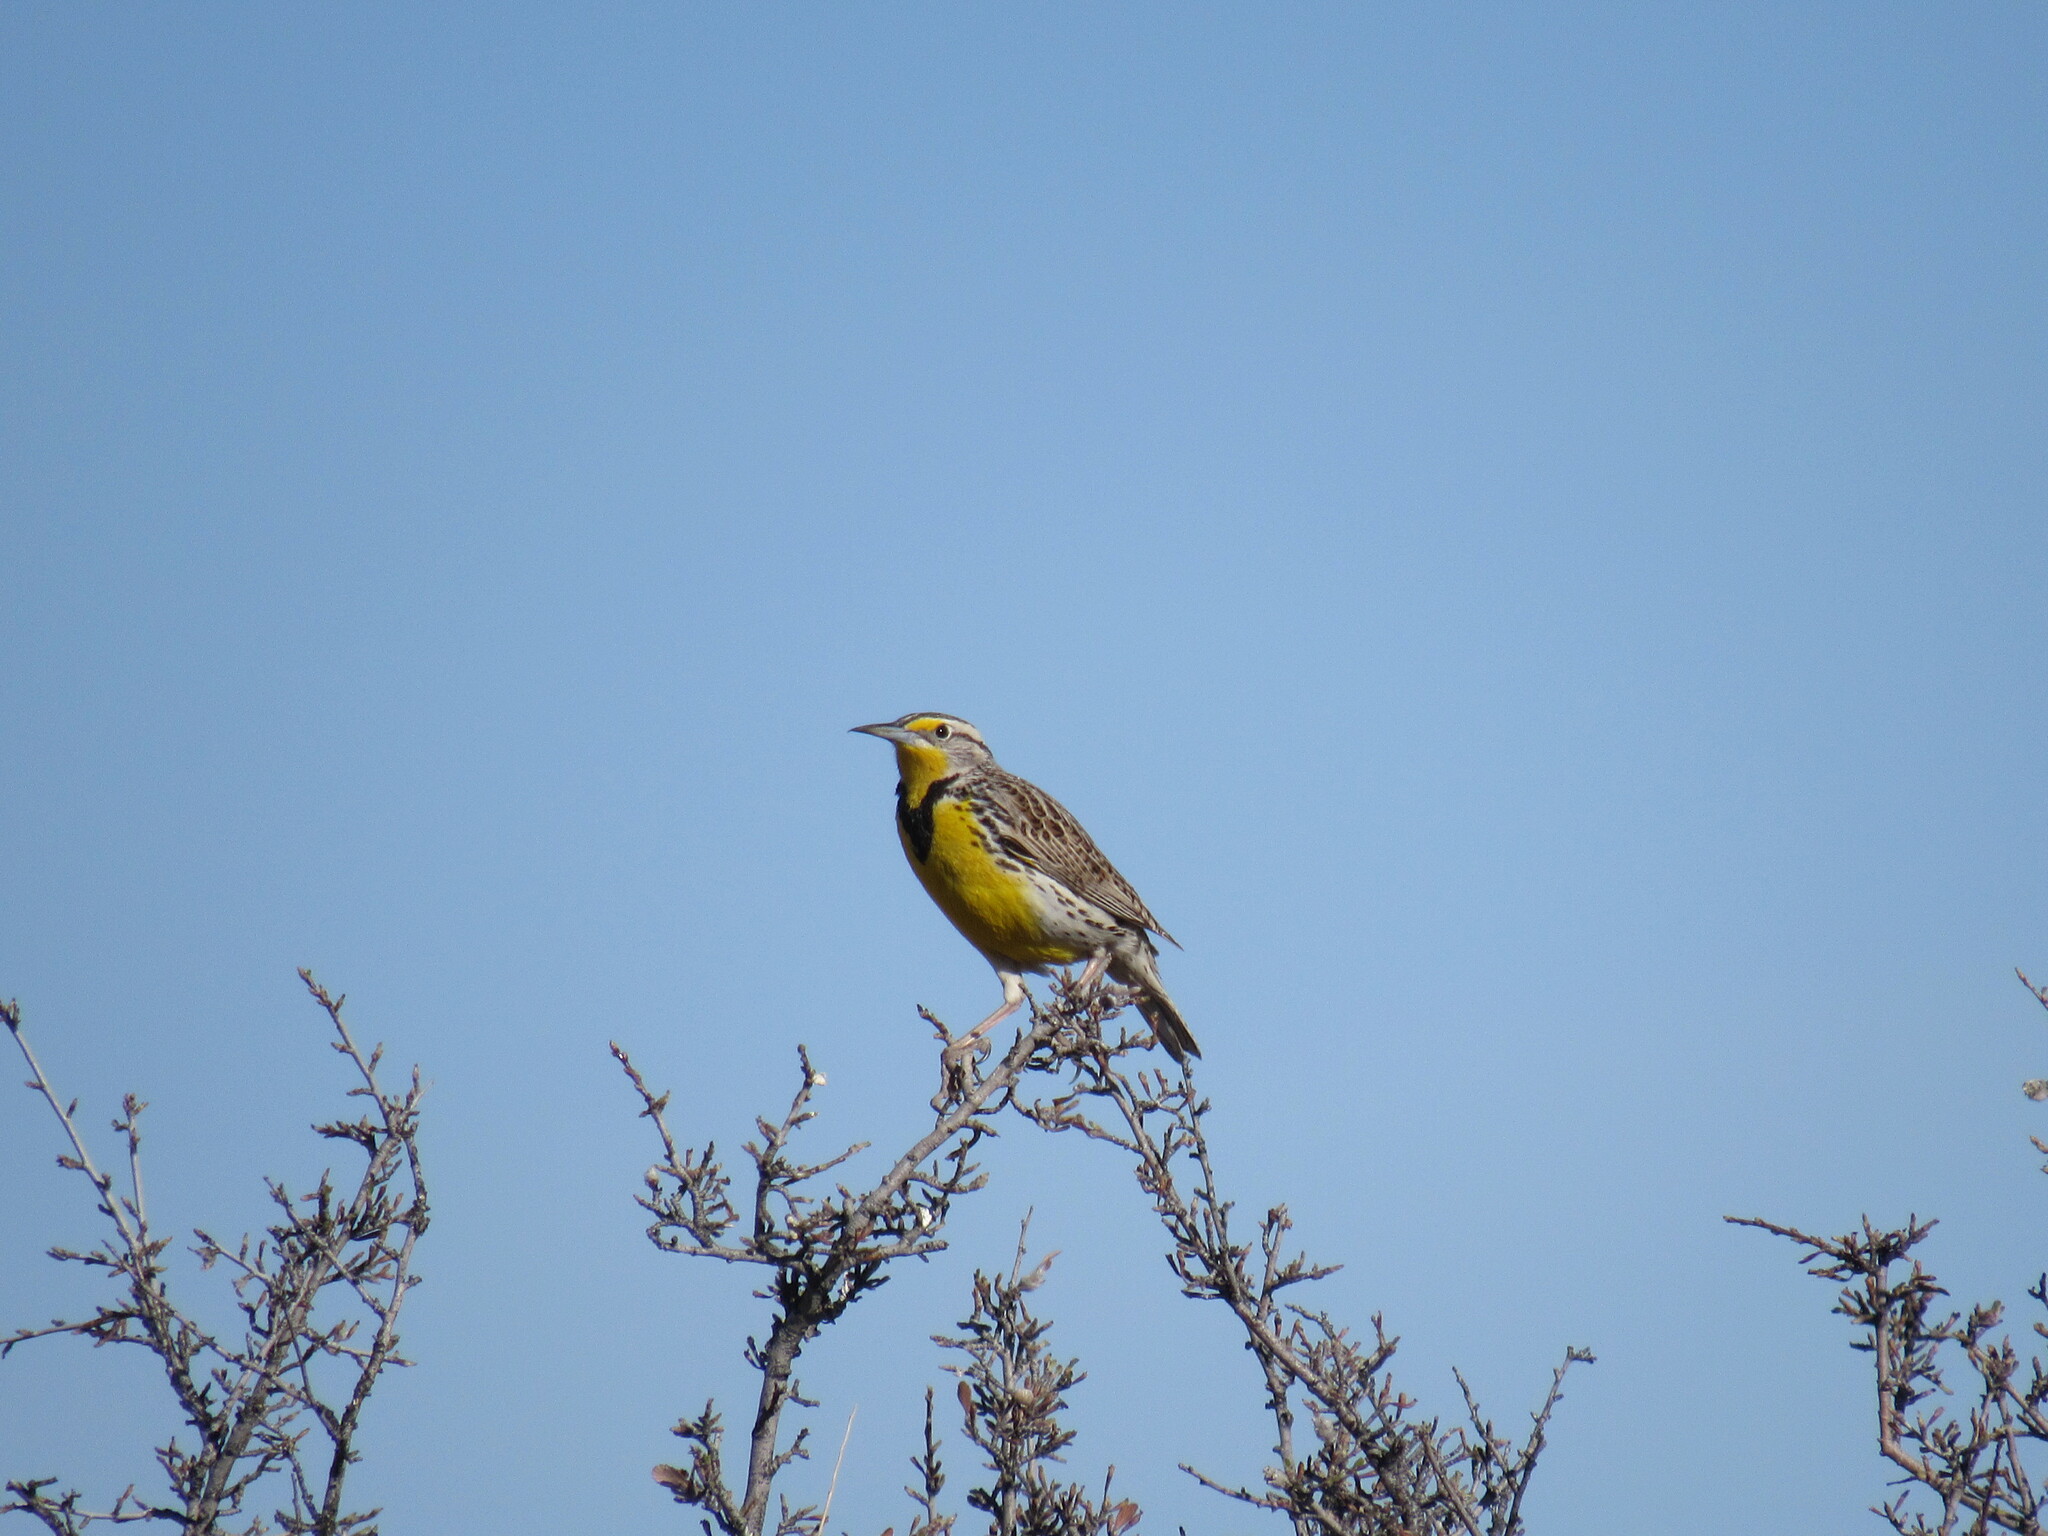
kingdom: Animalia
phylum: Chordata
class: Aves
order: Passeriformes
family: Icteridae
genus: Sturnella
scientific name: Sturnella neglecta
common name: Western meadowlark
